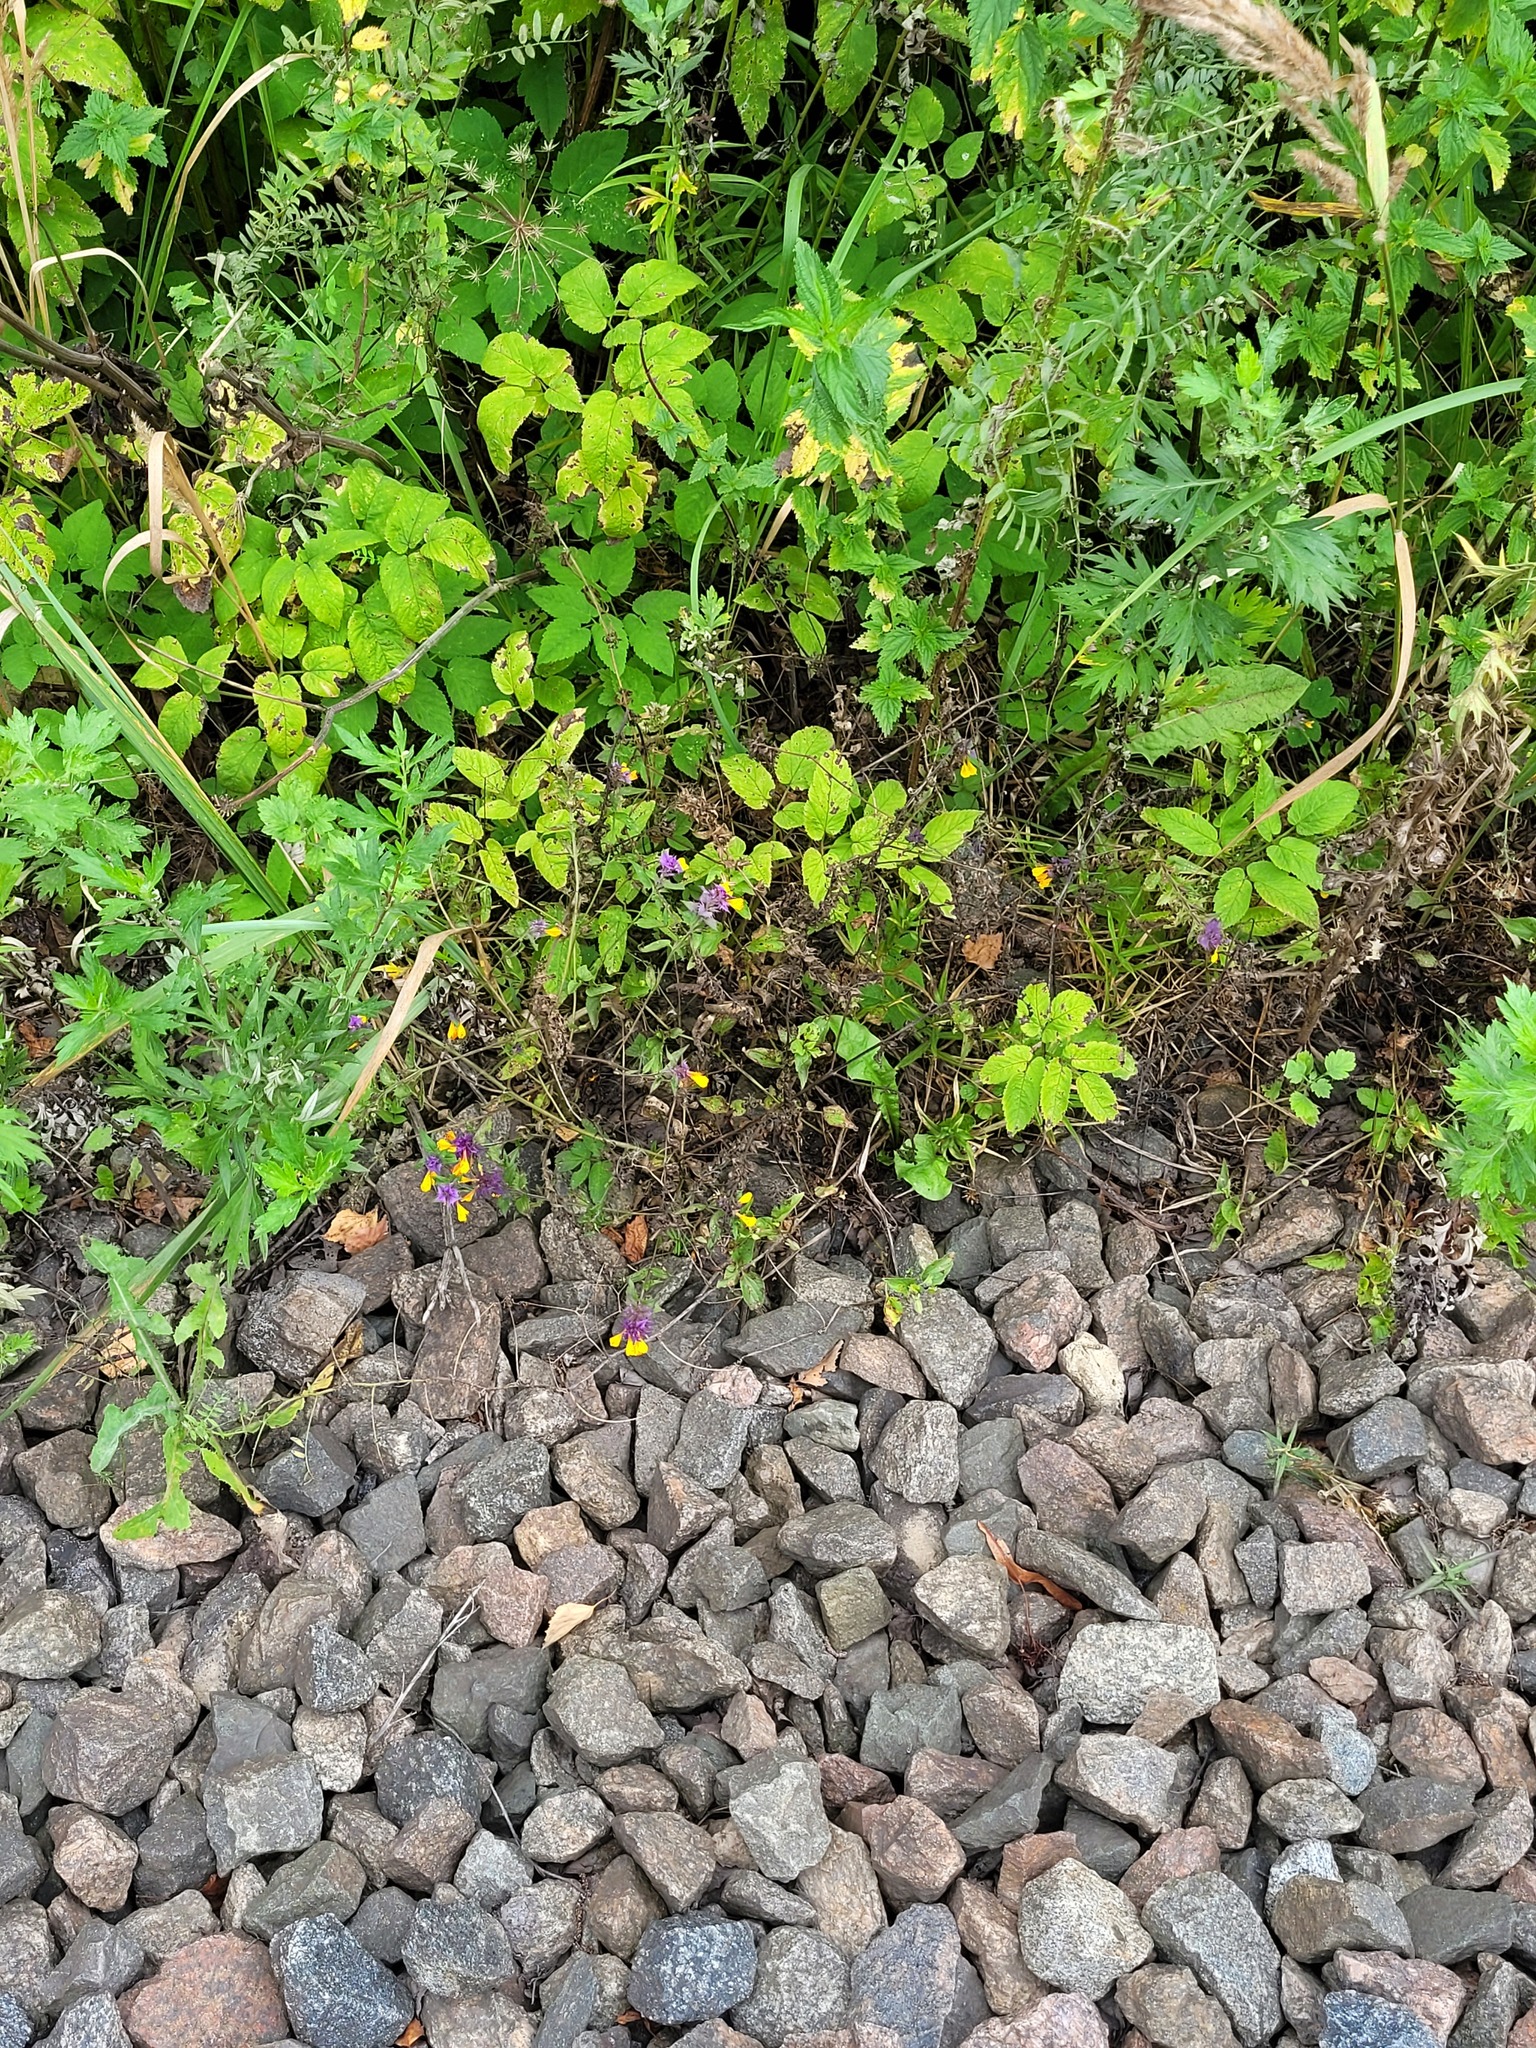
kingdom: Plantae
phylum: Tracheophyta
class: Magnoliopsida
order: Lamiales
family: Orobanchaceae
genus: Melampyrum
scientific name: Melampyrum nemorosum
